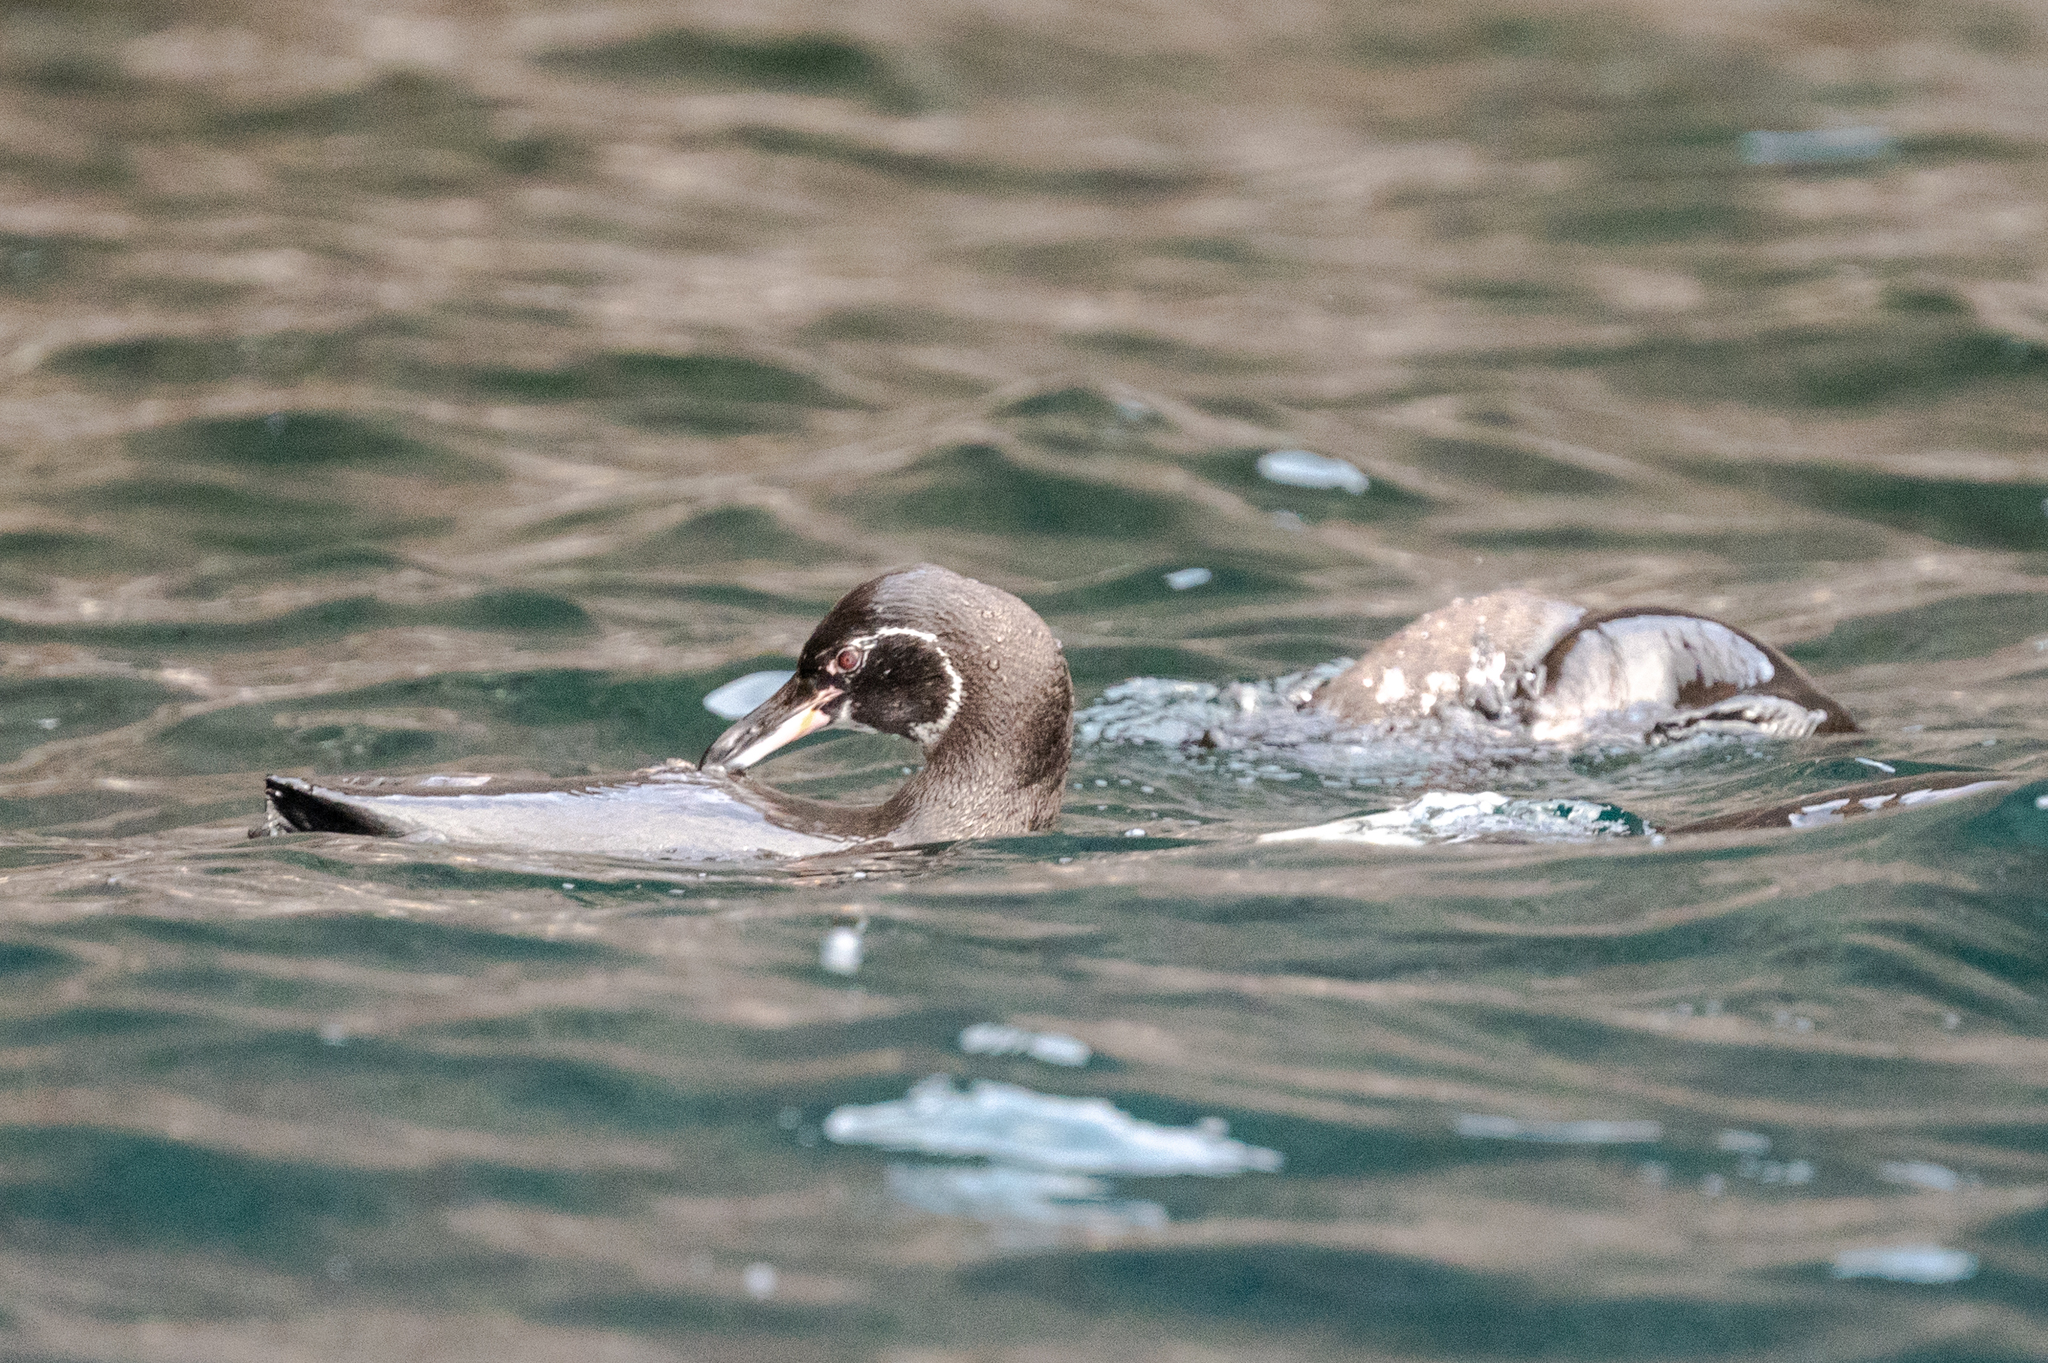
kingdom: Animalia
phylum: Chordata
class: Aves
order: Sphenisciformes
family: Spheniscidae
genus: Spheniscus
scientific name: Spheniscus mendiculus
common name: Galapagos penguin
